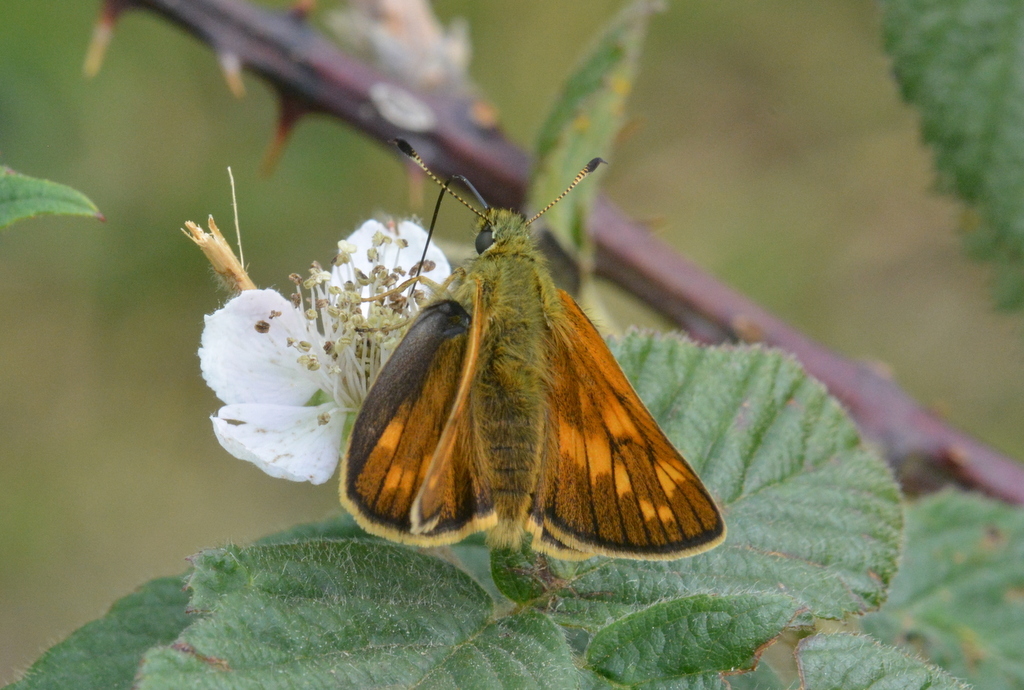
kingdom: Animalia
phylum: Arthropoda
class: Insecta
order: Lepidoptera
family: Hesperiidae
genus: Ochlodes
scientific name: Ochlodes venata
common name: Large skipper
